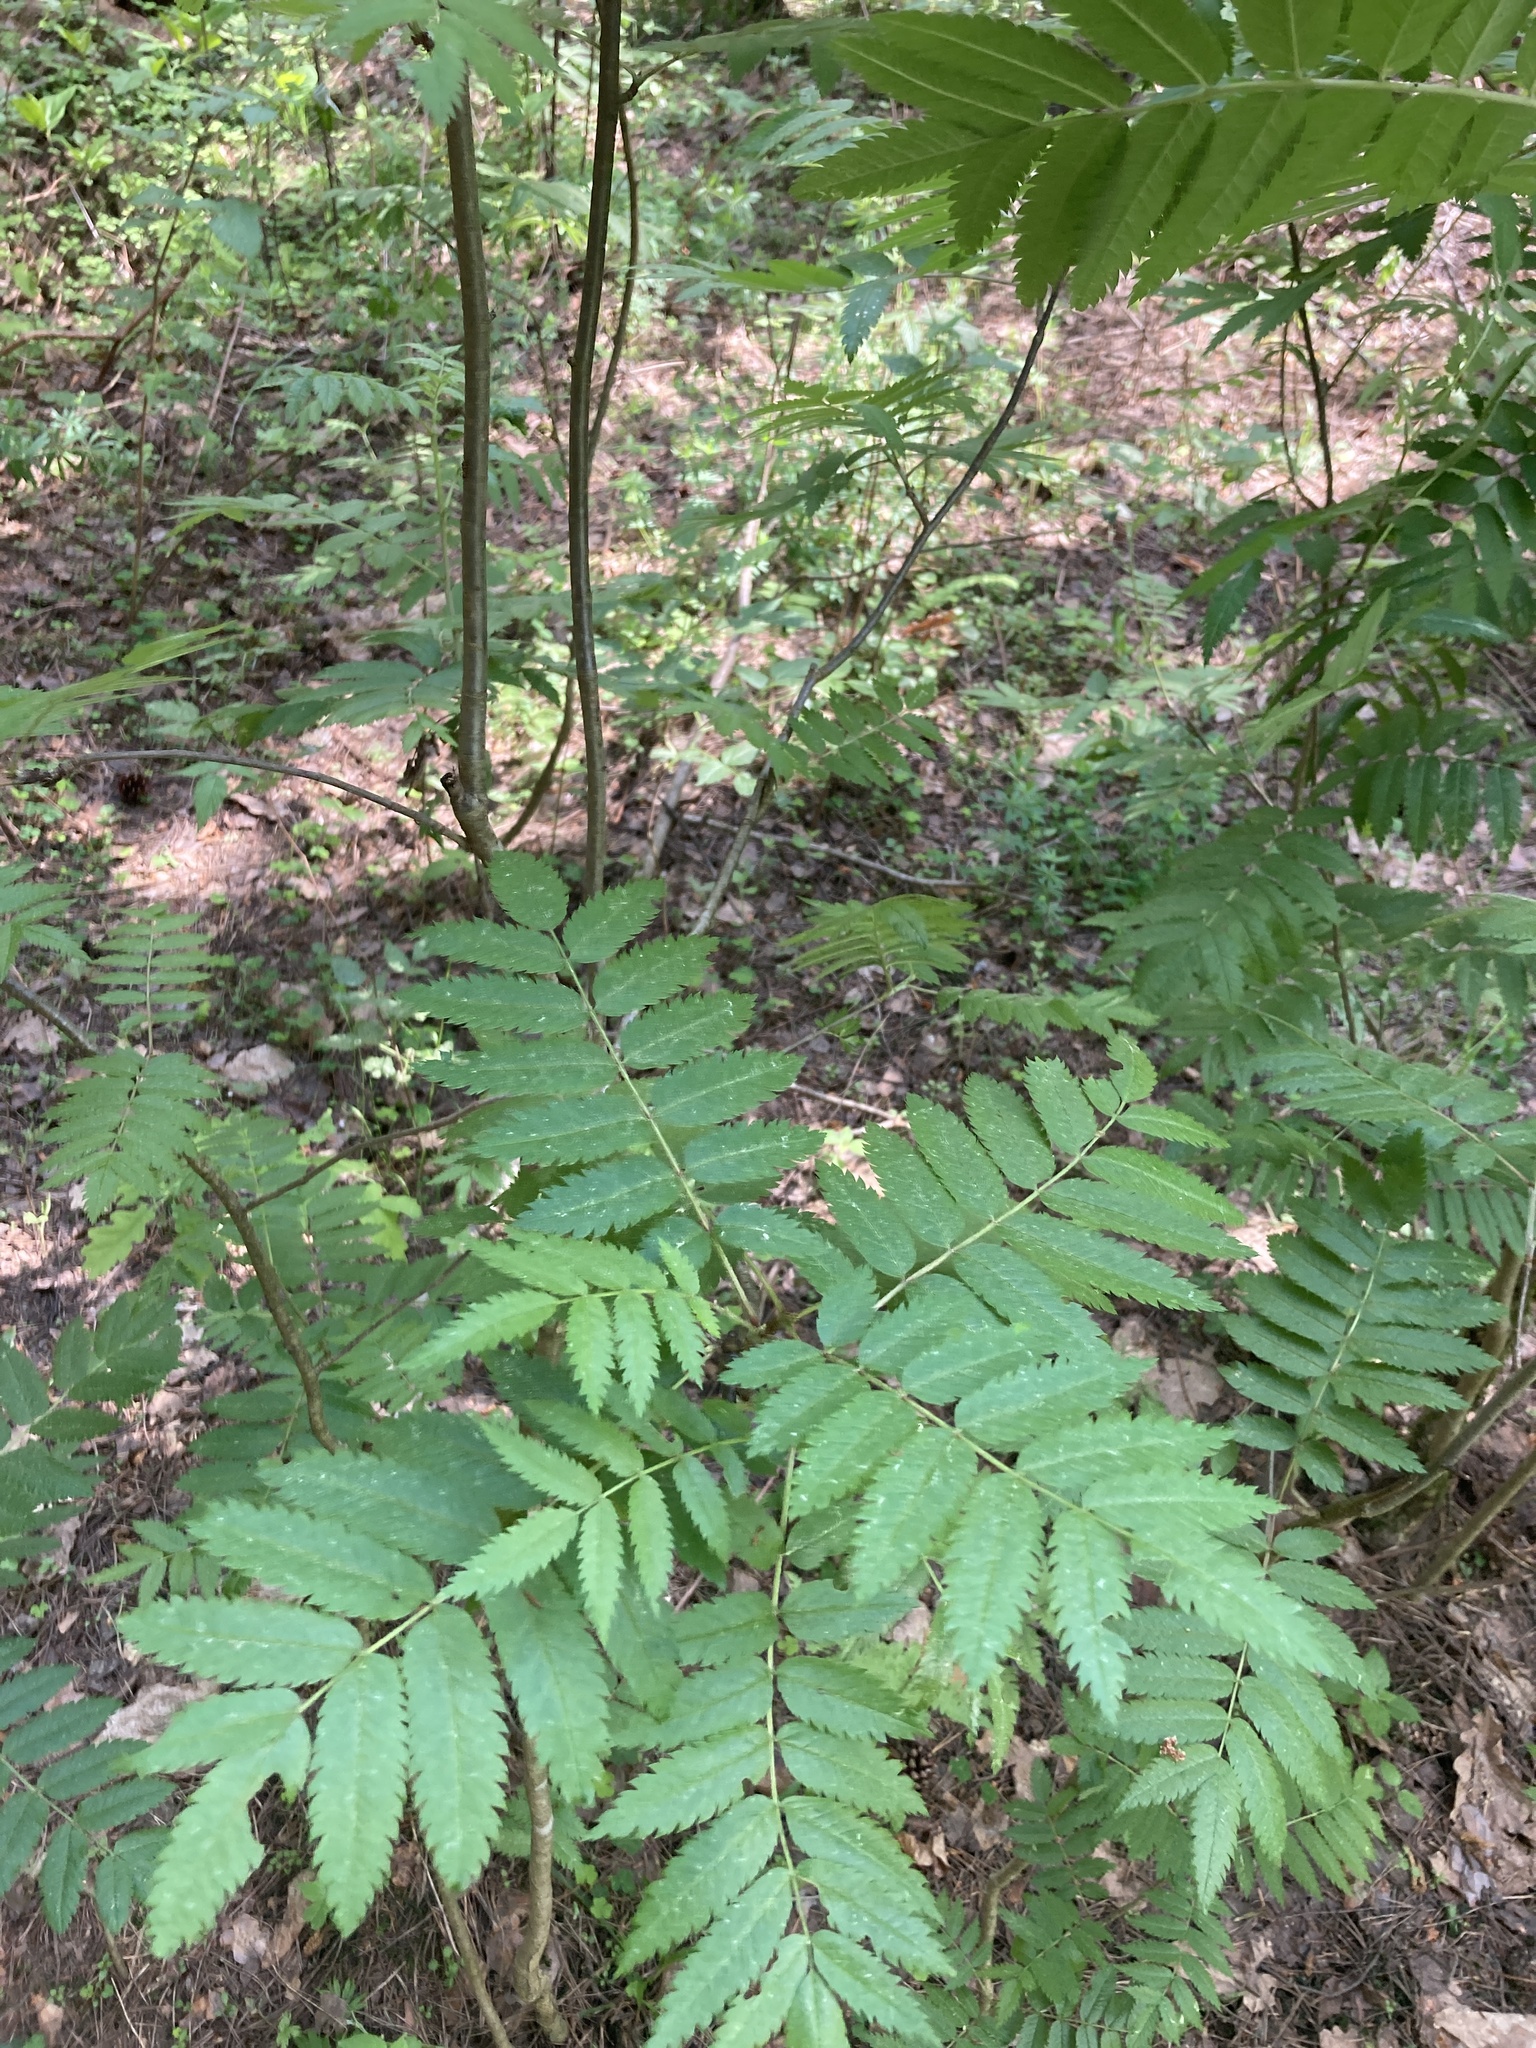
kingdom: Plantae
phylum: Tracheophyta
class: Magnoliopsida
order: Rosales
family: Rosaceae
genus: Sorbus
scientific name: Sorbus aucuparia
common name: Rowan
